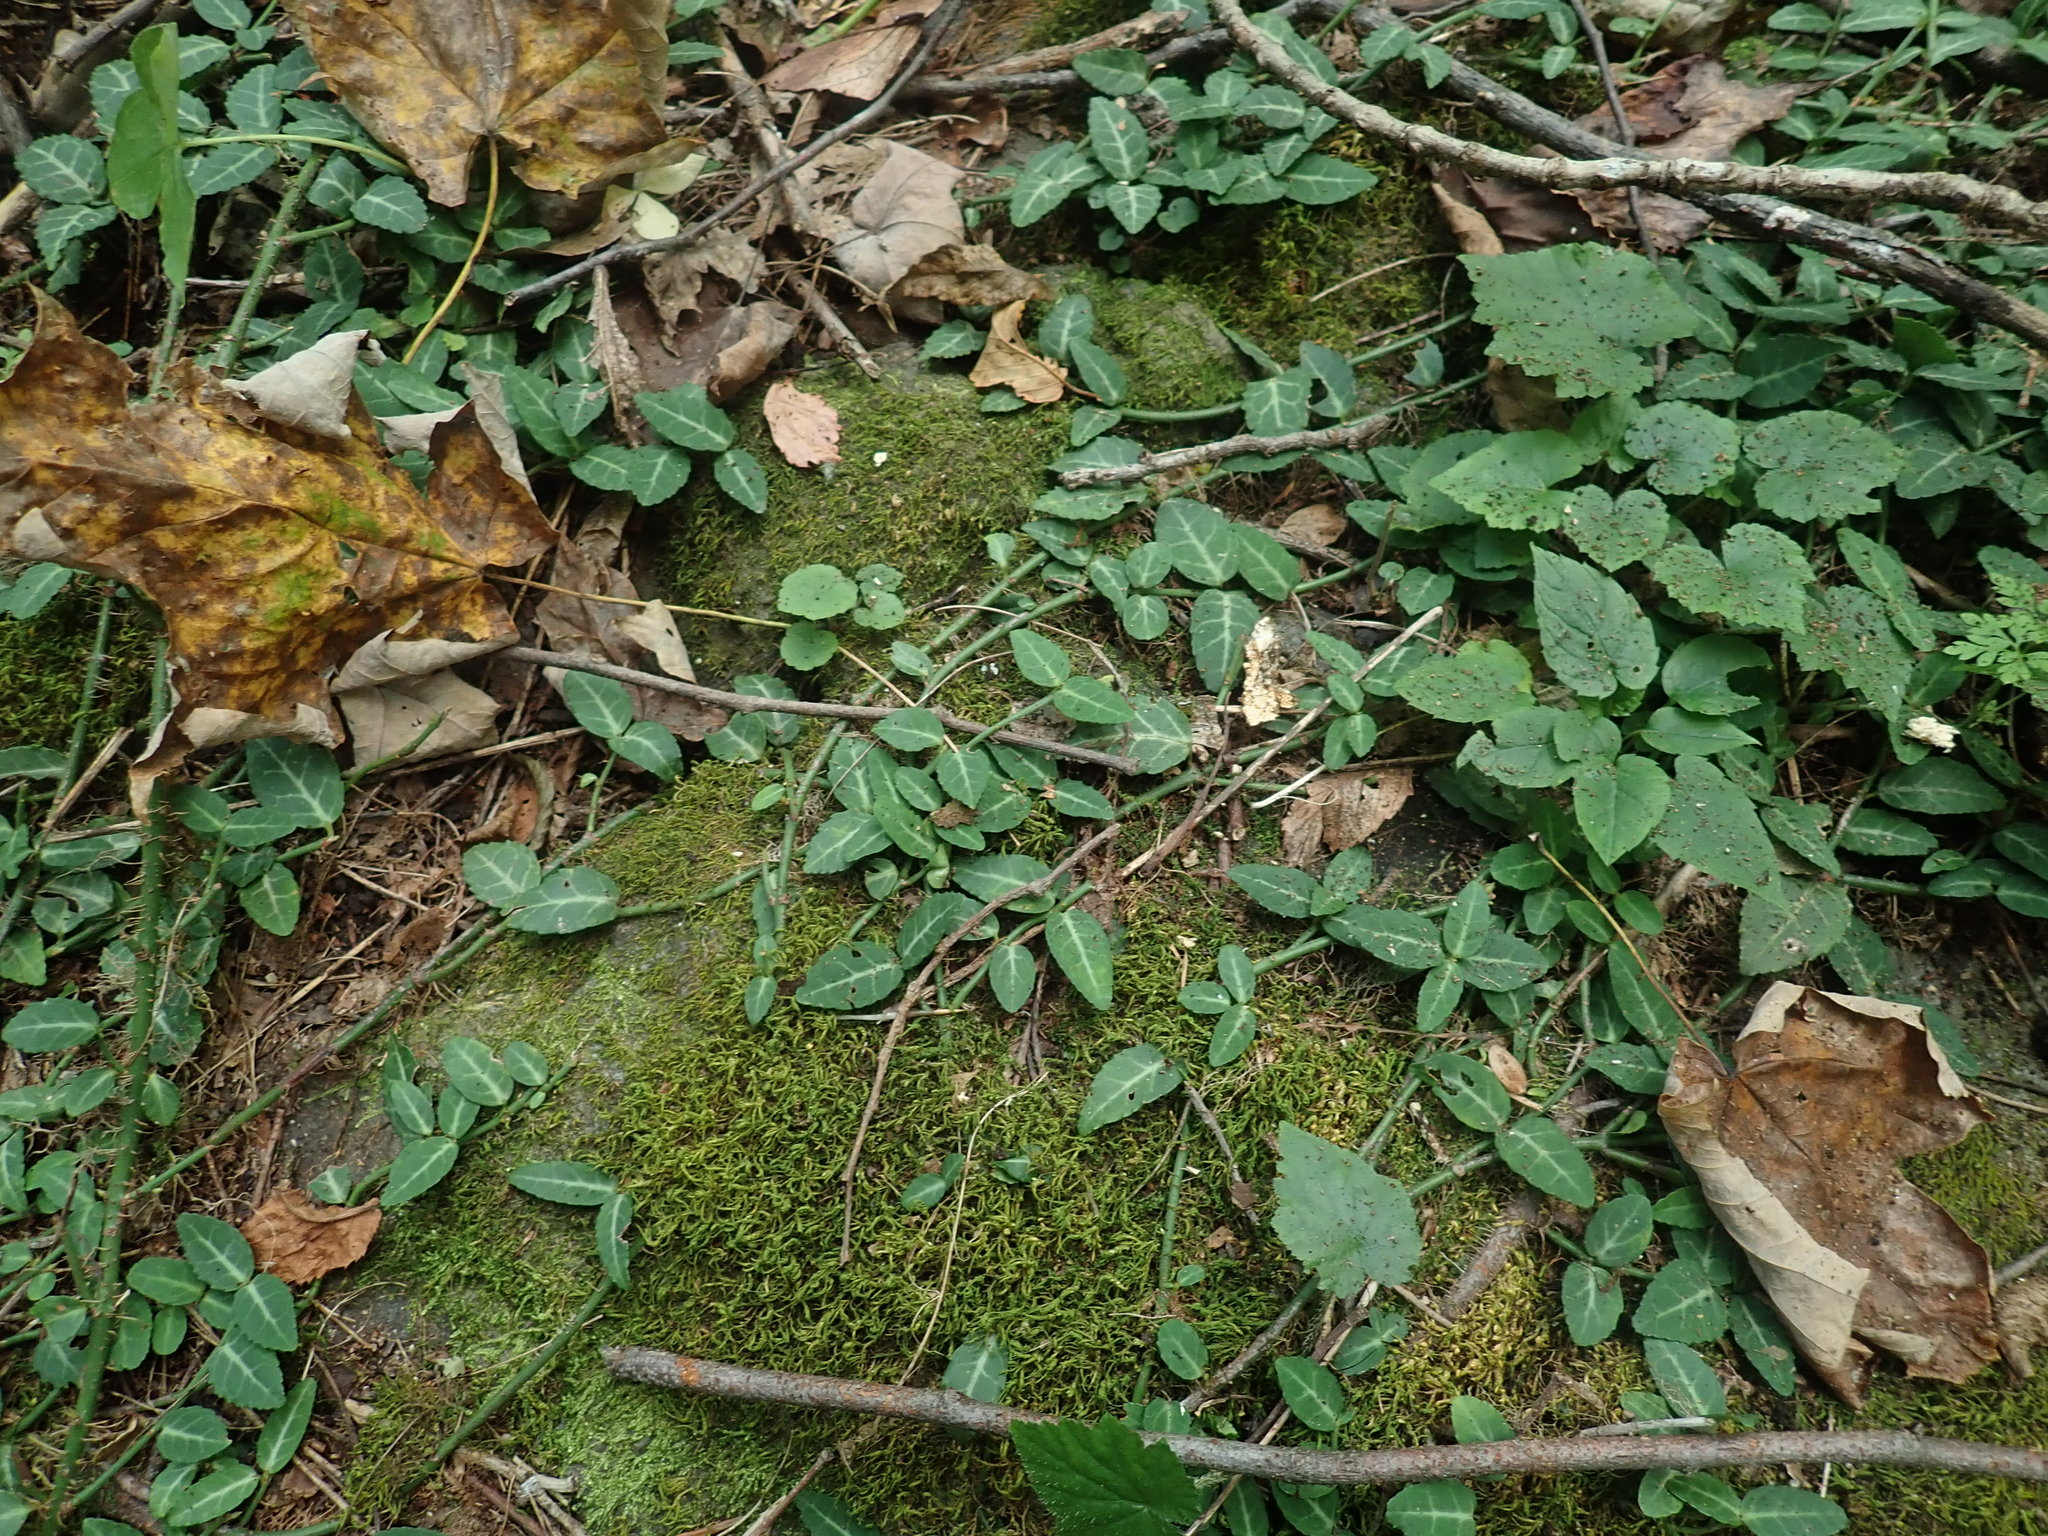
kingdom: Plantae
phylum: Tracheophyta
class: Magnoliopsida
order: Celastrales
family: Celastraceae
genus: Euonymus
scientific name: Euonymus fortunei
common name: Climbing euonymus
